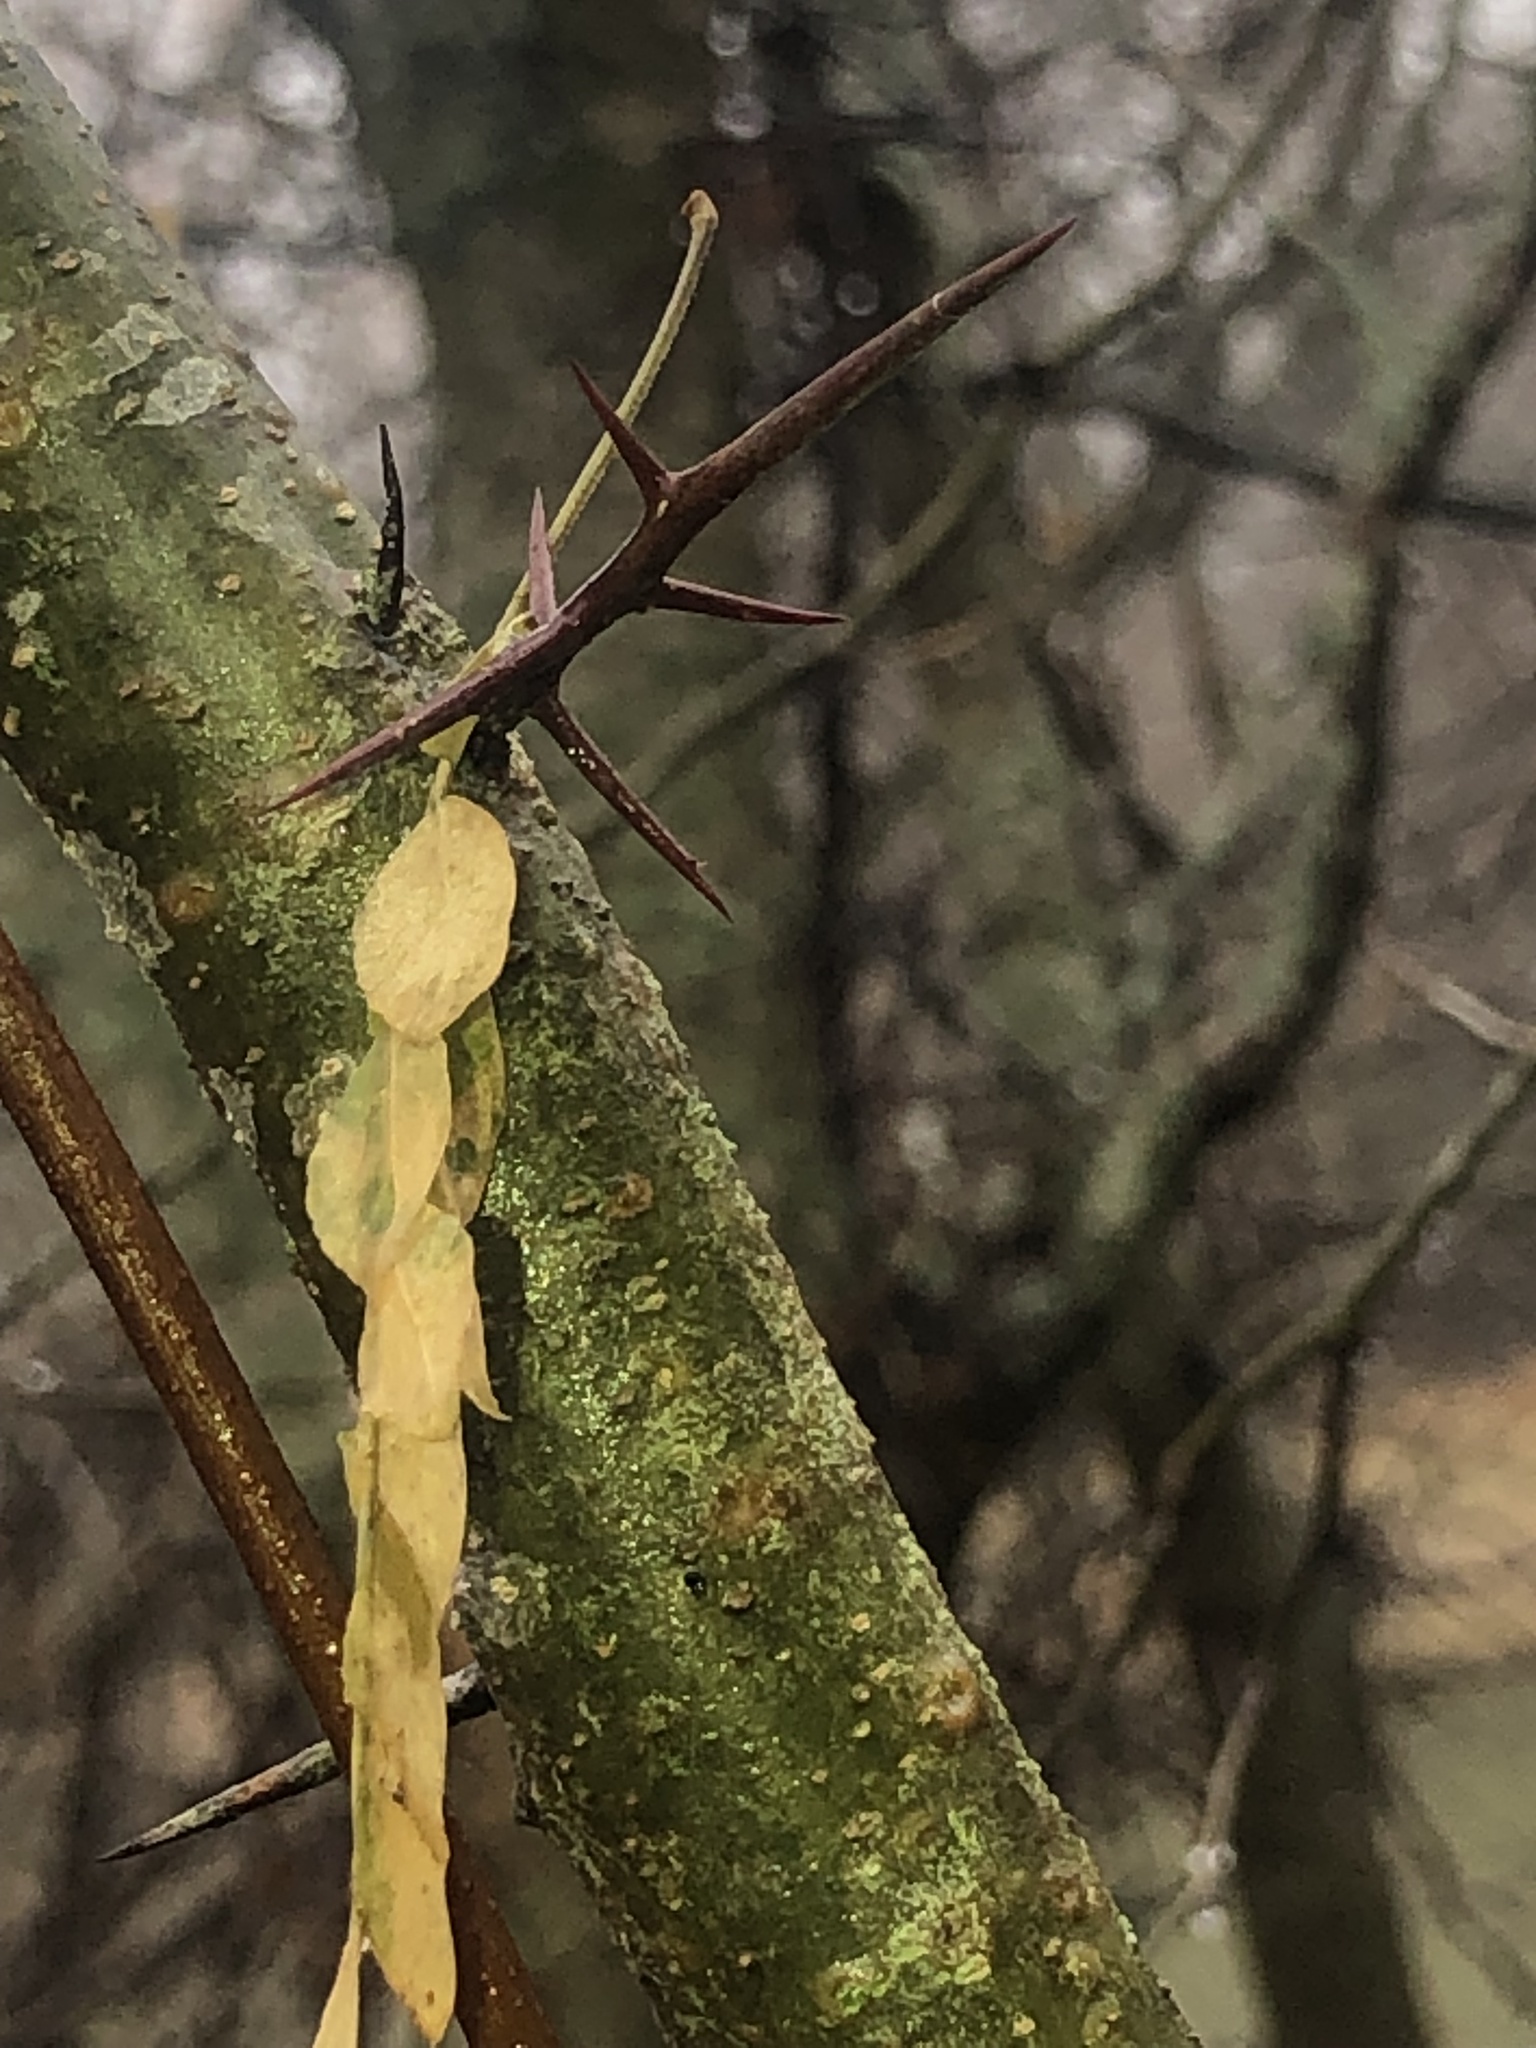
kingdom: Plantae
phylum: Tracheophyta
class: Magnoliopsida
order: Fabales
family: Fabaceae
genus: Gleditsia
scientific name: Gleditsia triacanthos
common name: Common honeylocust
